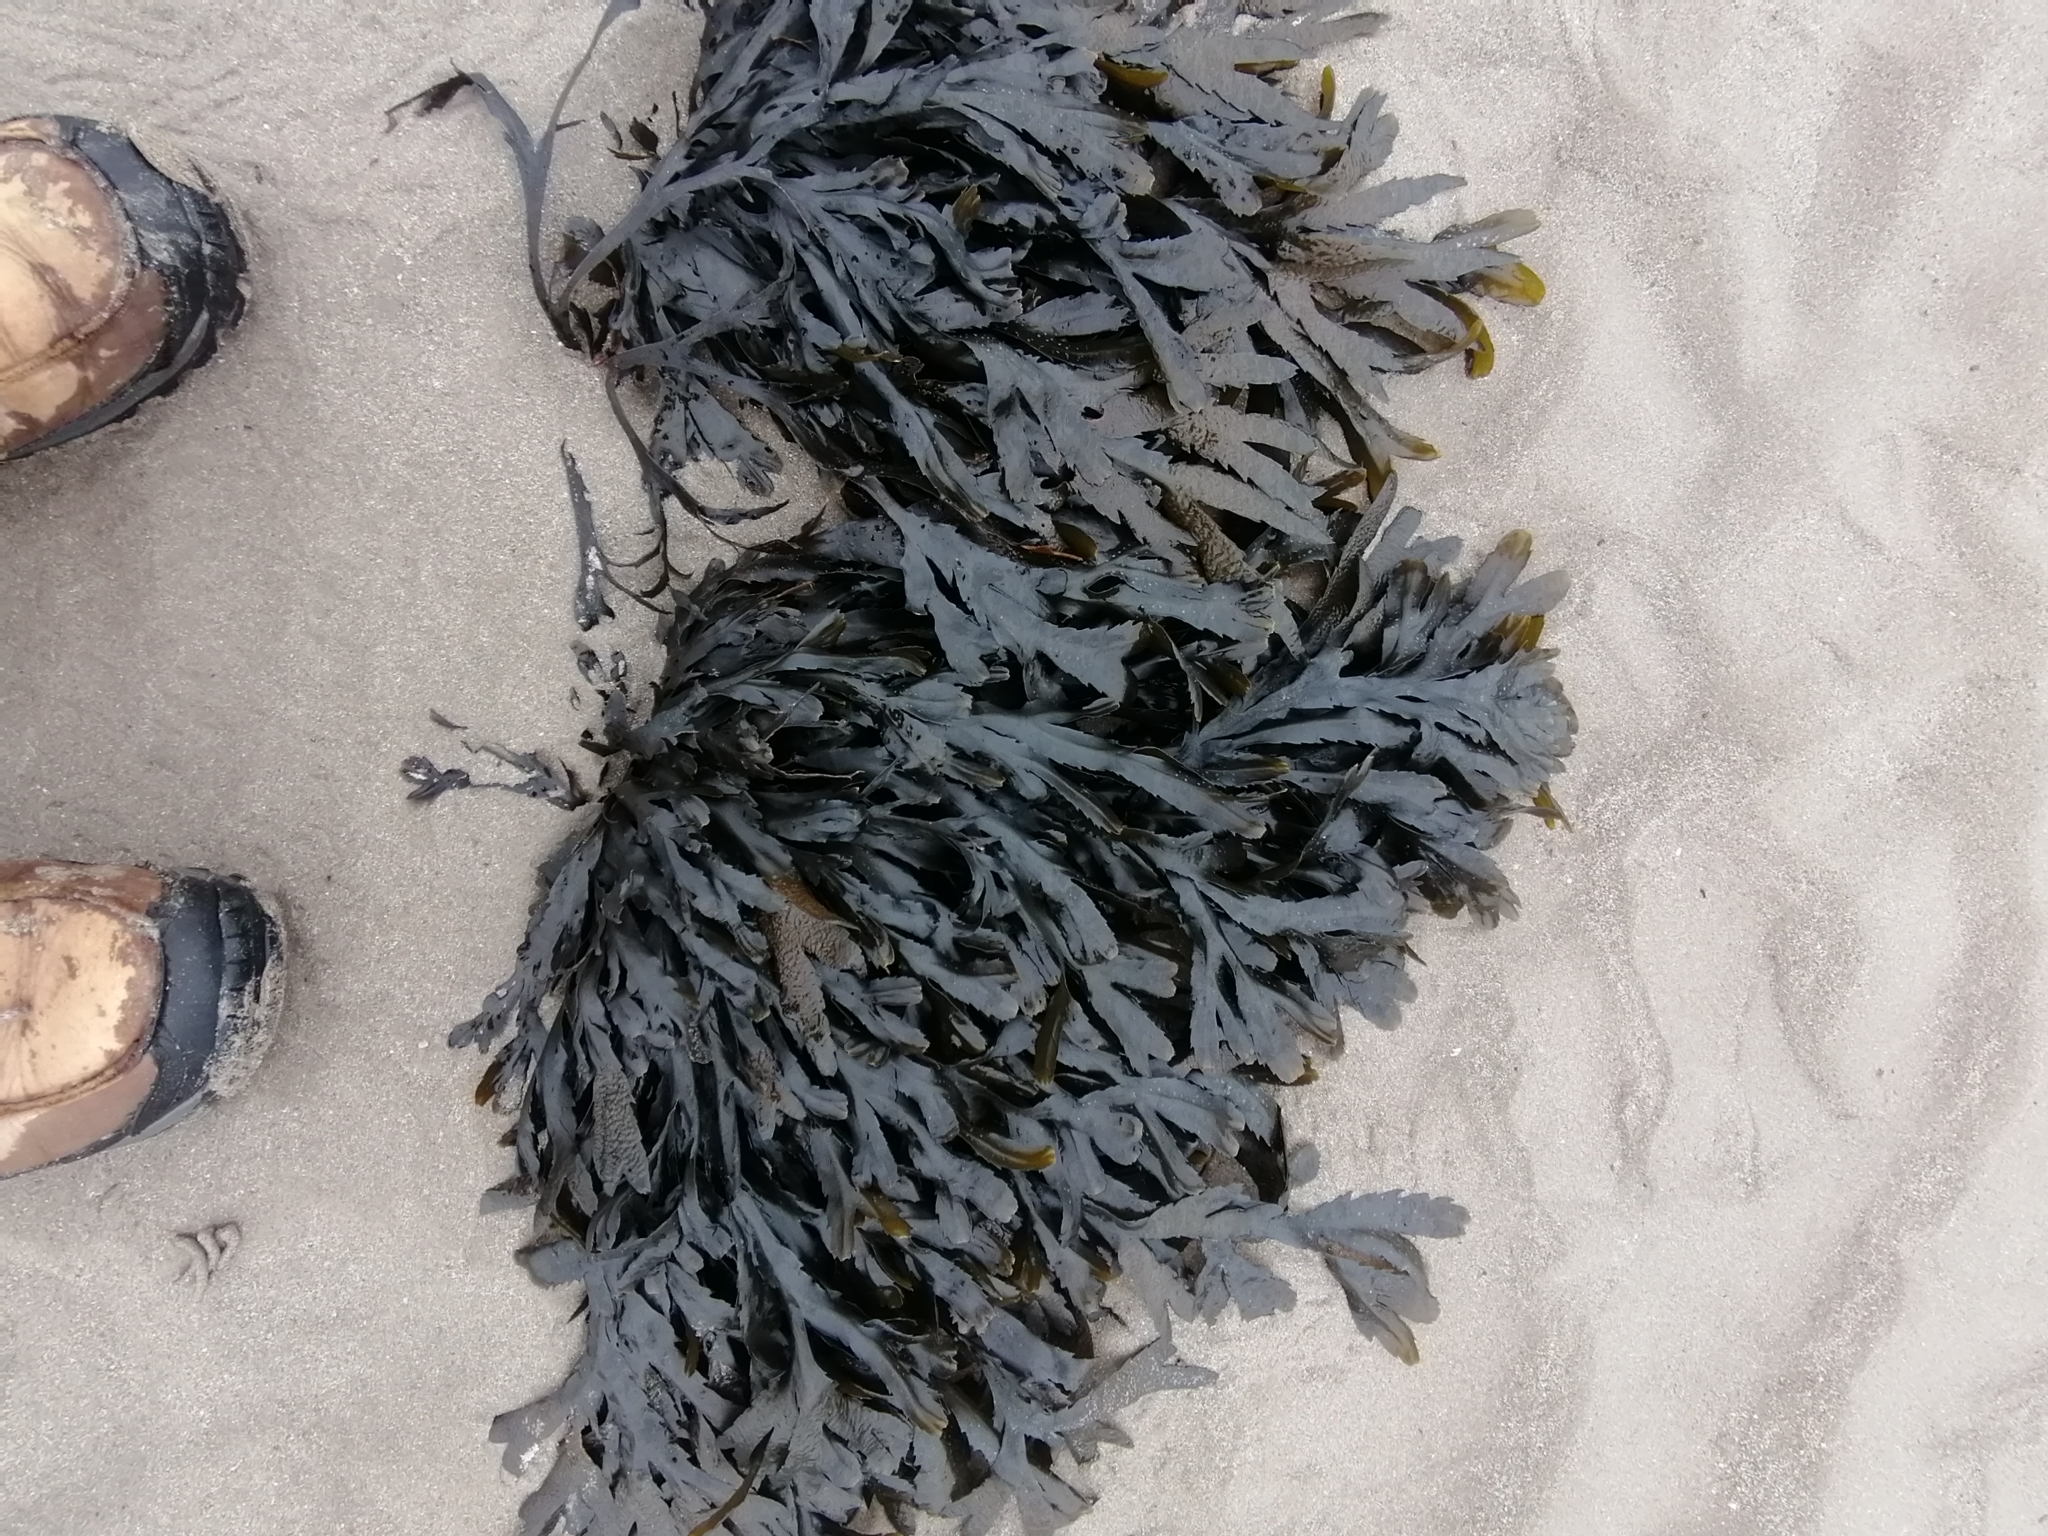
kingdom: Chromista
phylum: Ochrophyta
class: Phaeophyceae
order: Fucales
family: Fucaceae
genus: Fucus
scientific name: Fucus serratus
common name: Toothed wrack
